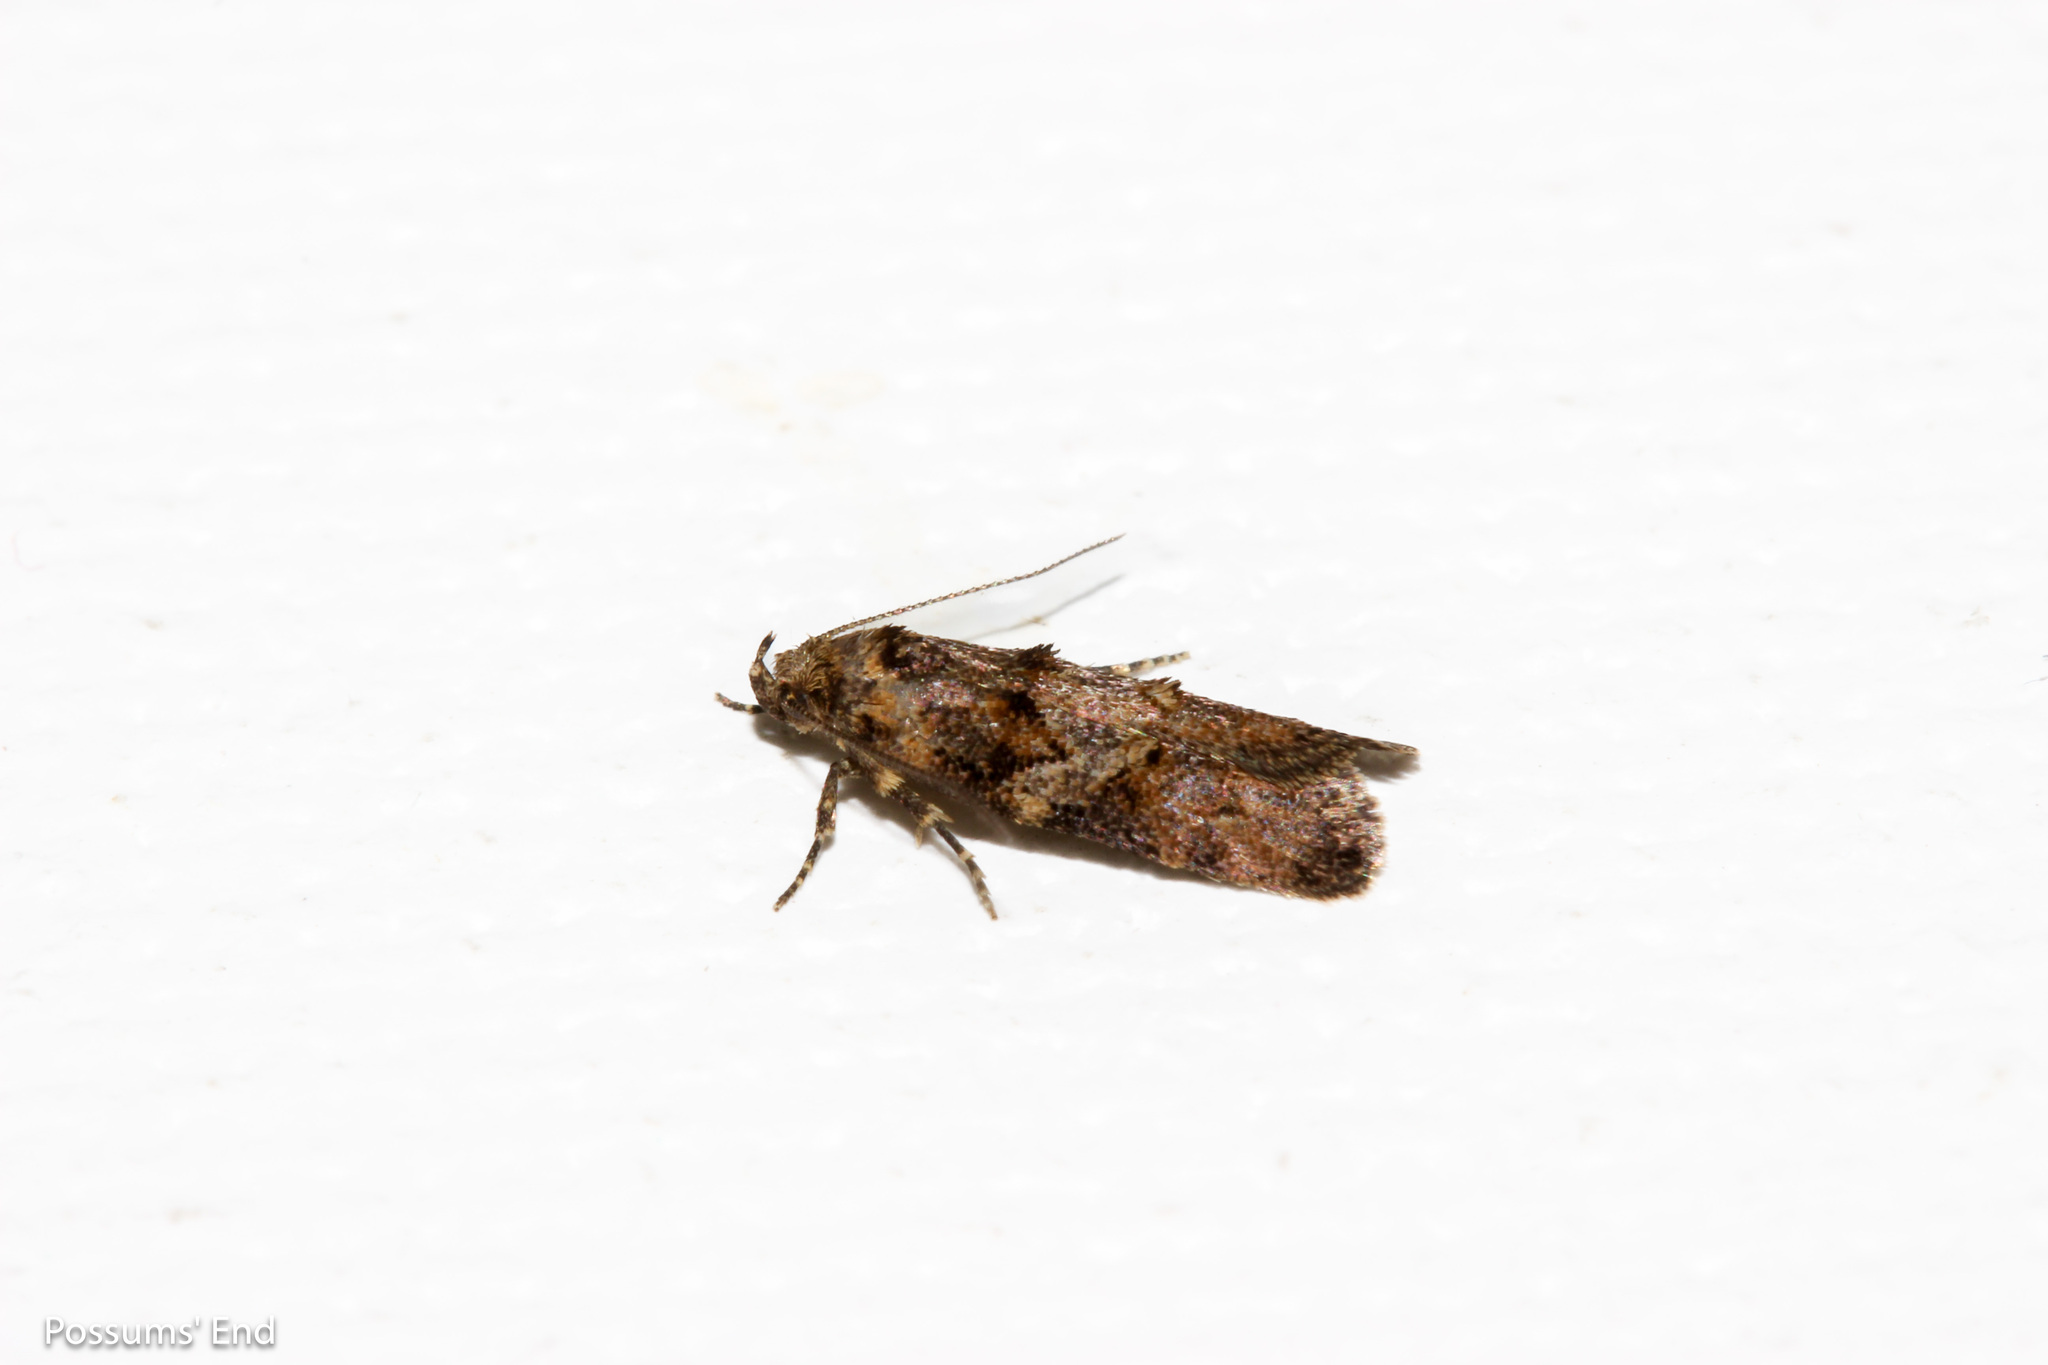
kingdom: Animalia
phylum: Arthropoda
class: Insecta
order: Lepidoptera
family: Oecophoridae
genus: Trachypepla
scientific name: Trachypepla anastrella
